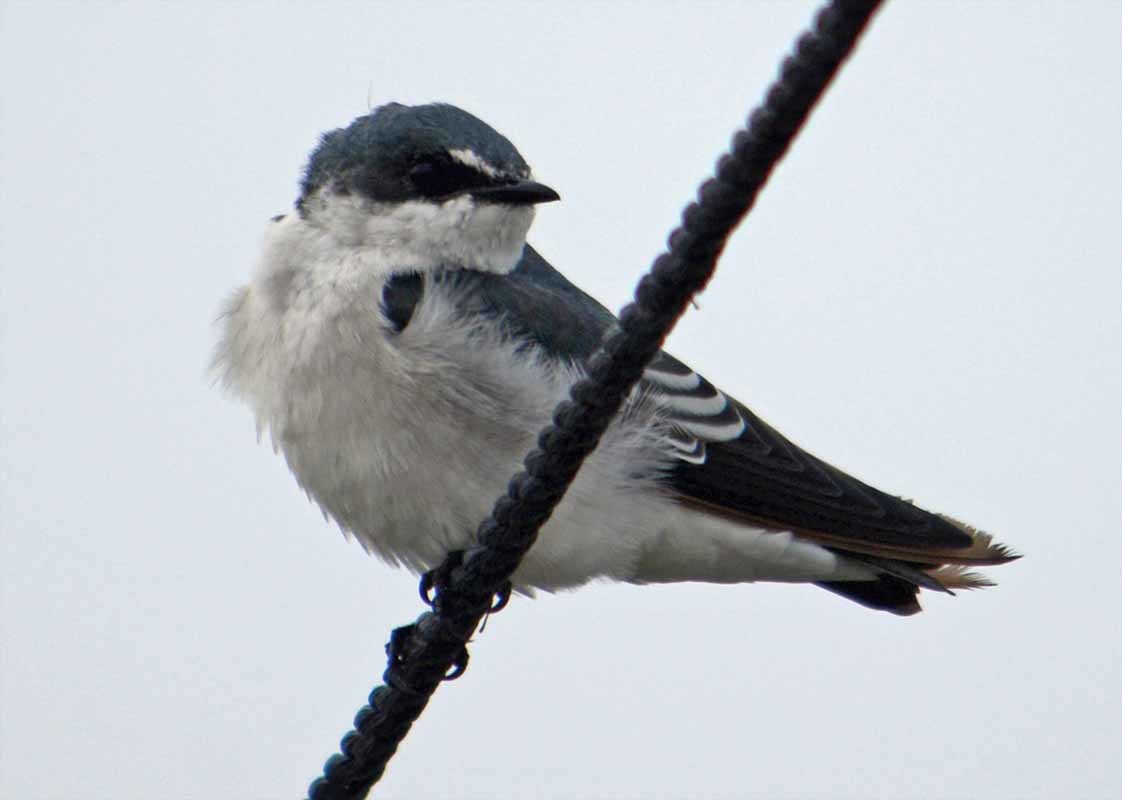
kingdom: Animalia
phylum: Chordata
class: Aves
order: Passeriformes
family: Hirundinidae
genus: Tachycineta
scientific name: Tachycineta albilinea
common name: Mangrove swallow
